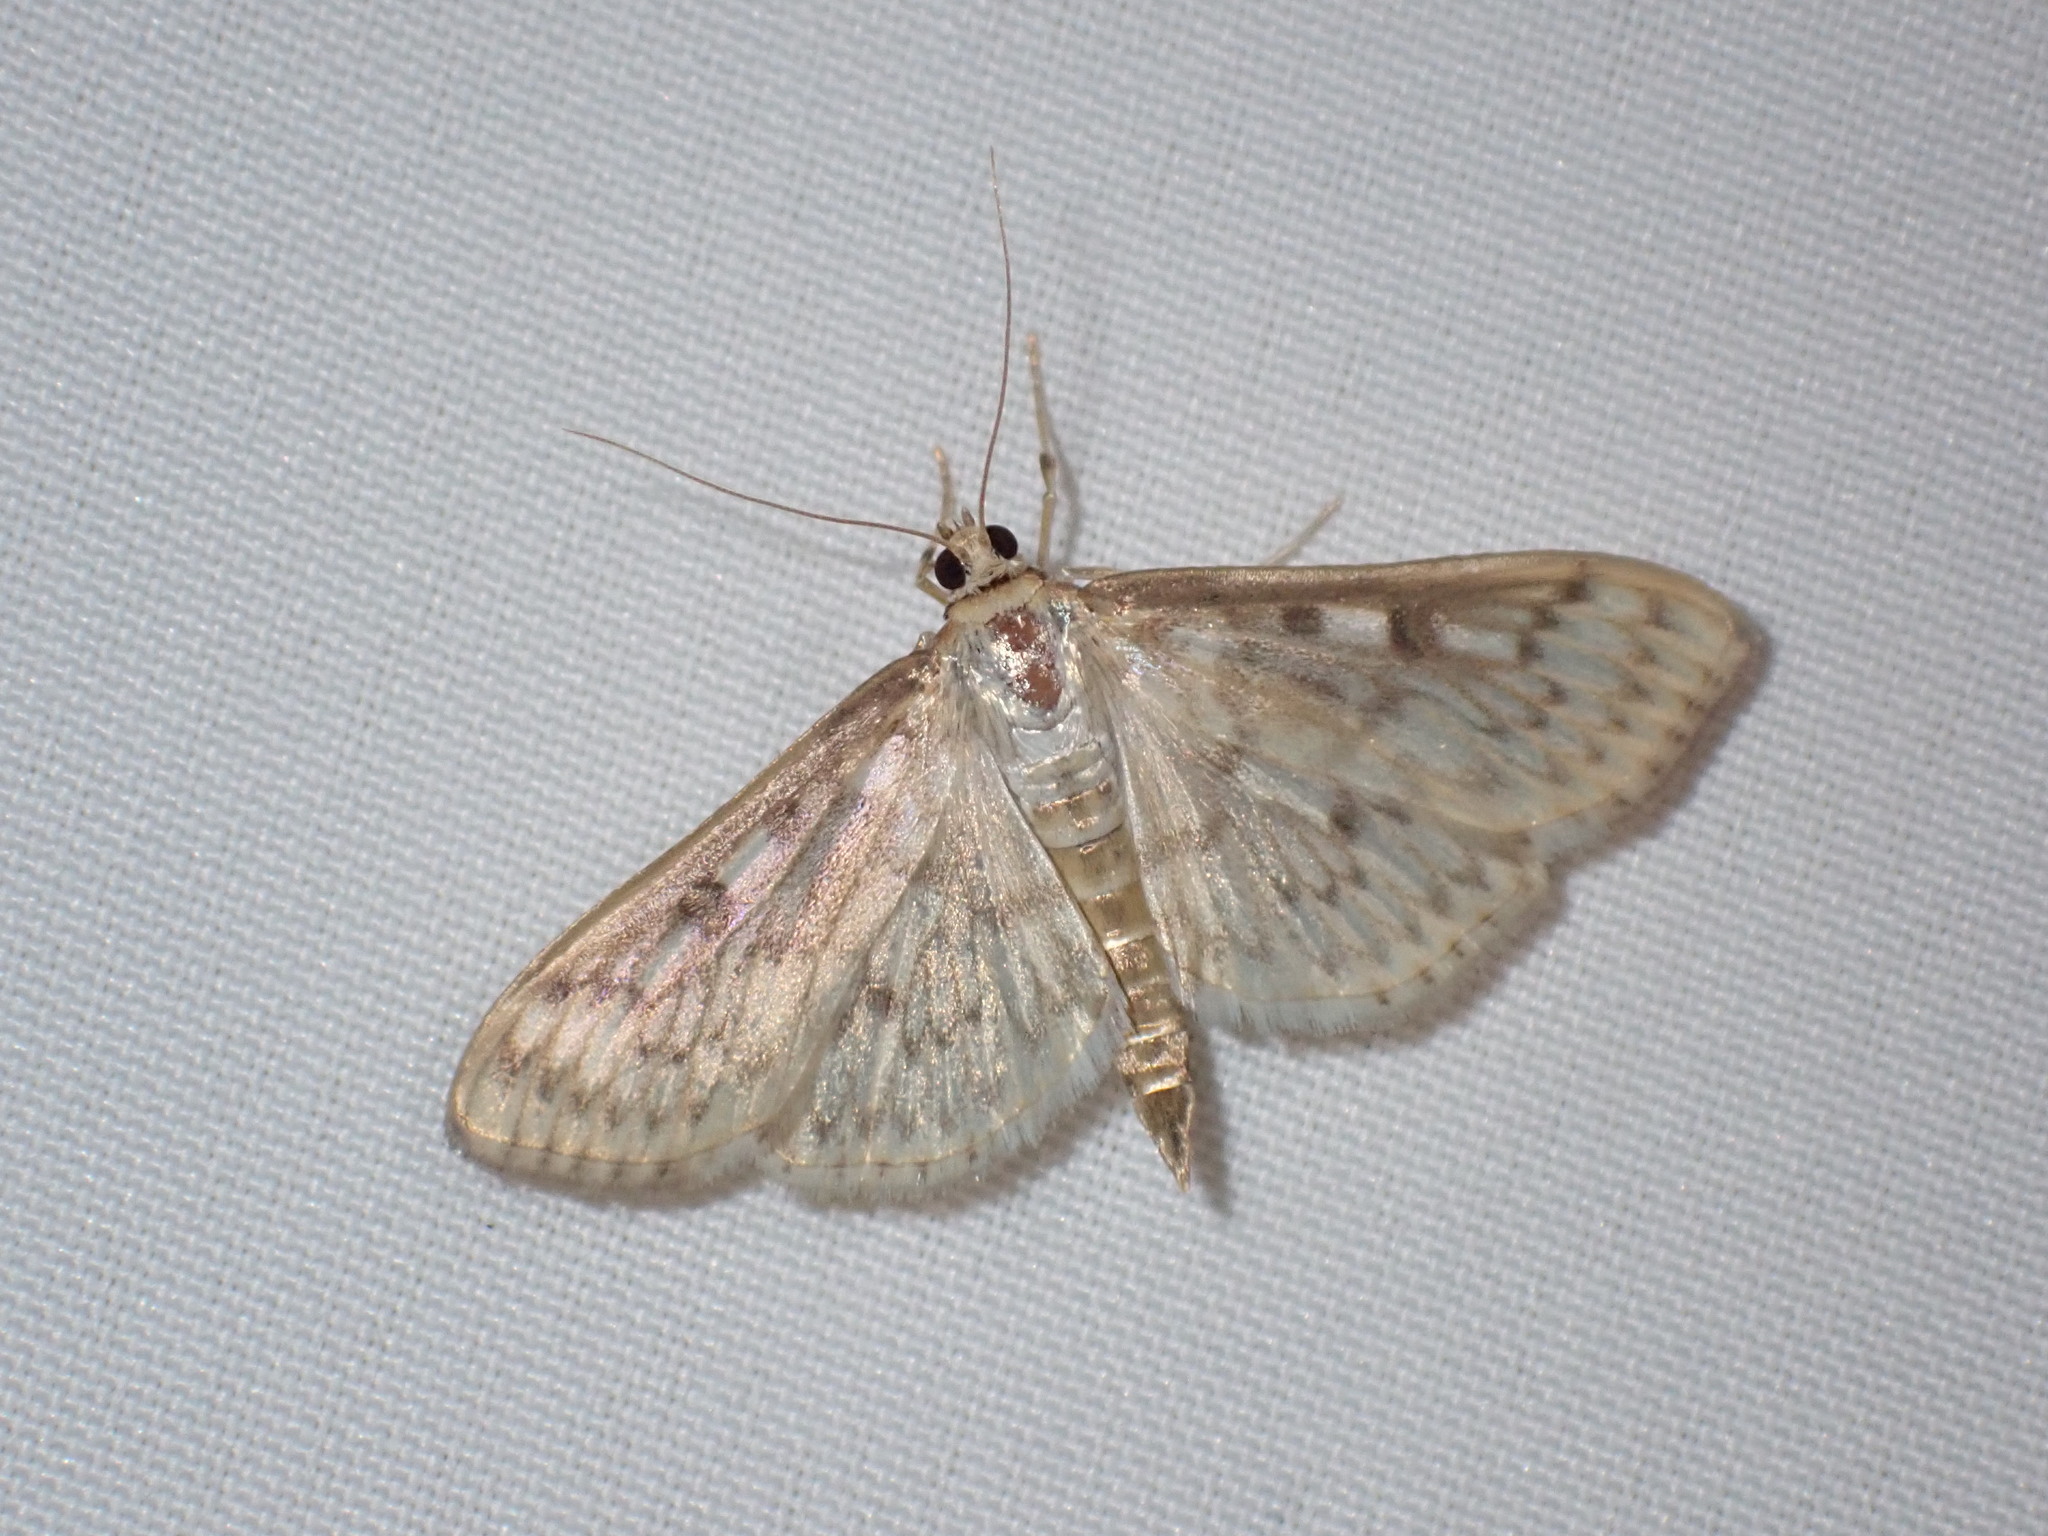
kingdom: Animalia
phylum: Arthropoda
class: Insecta
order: Lepidoptera
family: Crambidae
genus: Herpetogramma
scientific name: Herpetogramma aquilonalis
